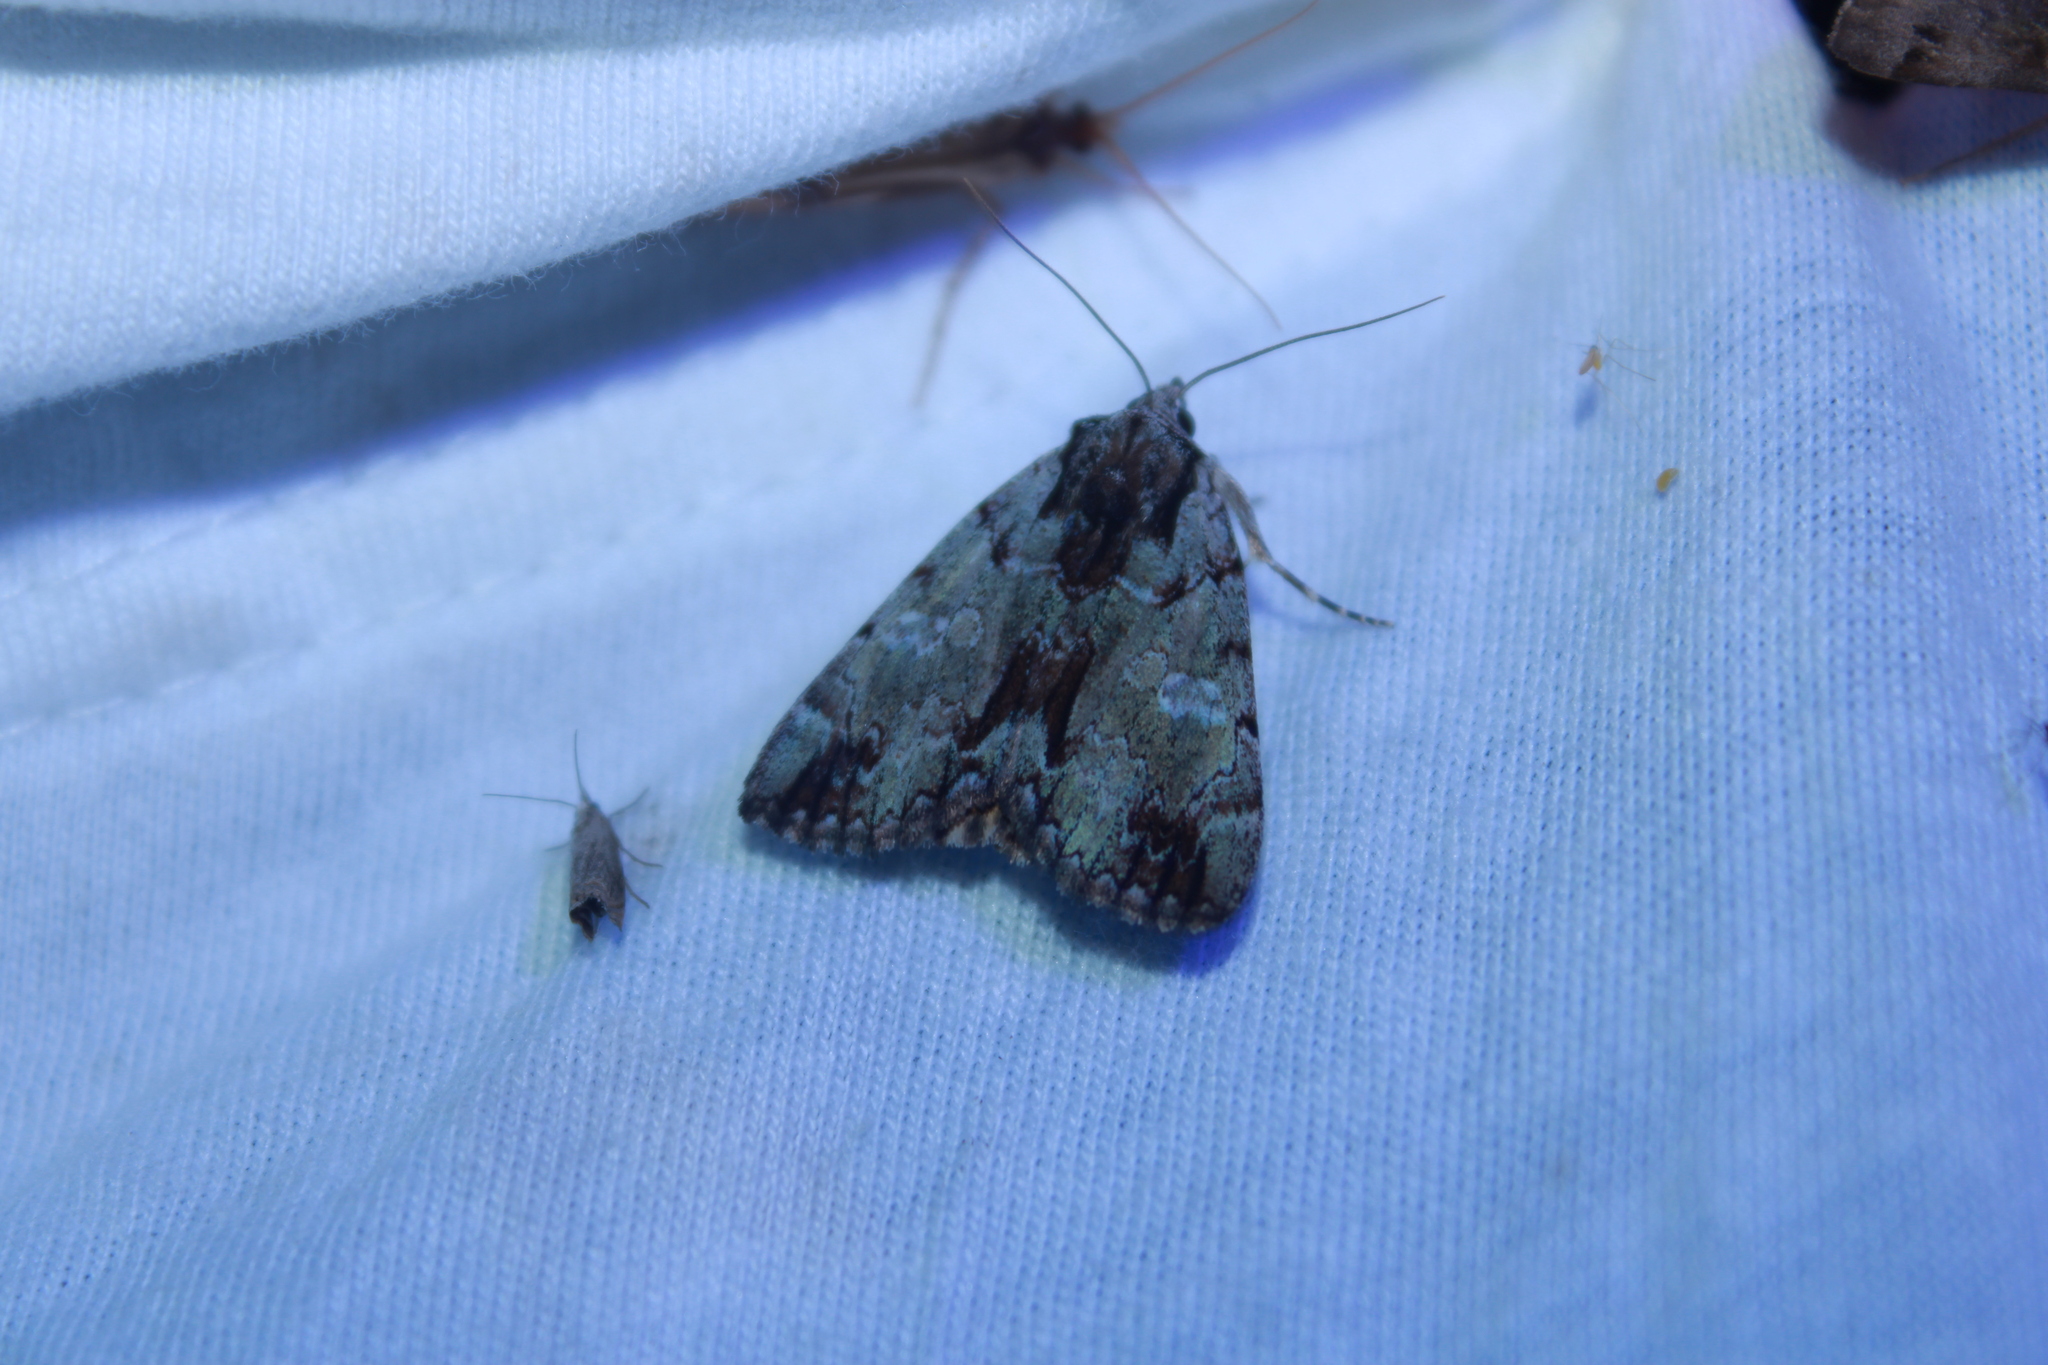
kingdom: Animalia
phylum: Arthropoda
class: Insecta
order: Lepidoptera
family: Erebidae
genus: Catocala
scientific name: Catocala praeclara
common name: Praeclara underwing
